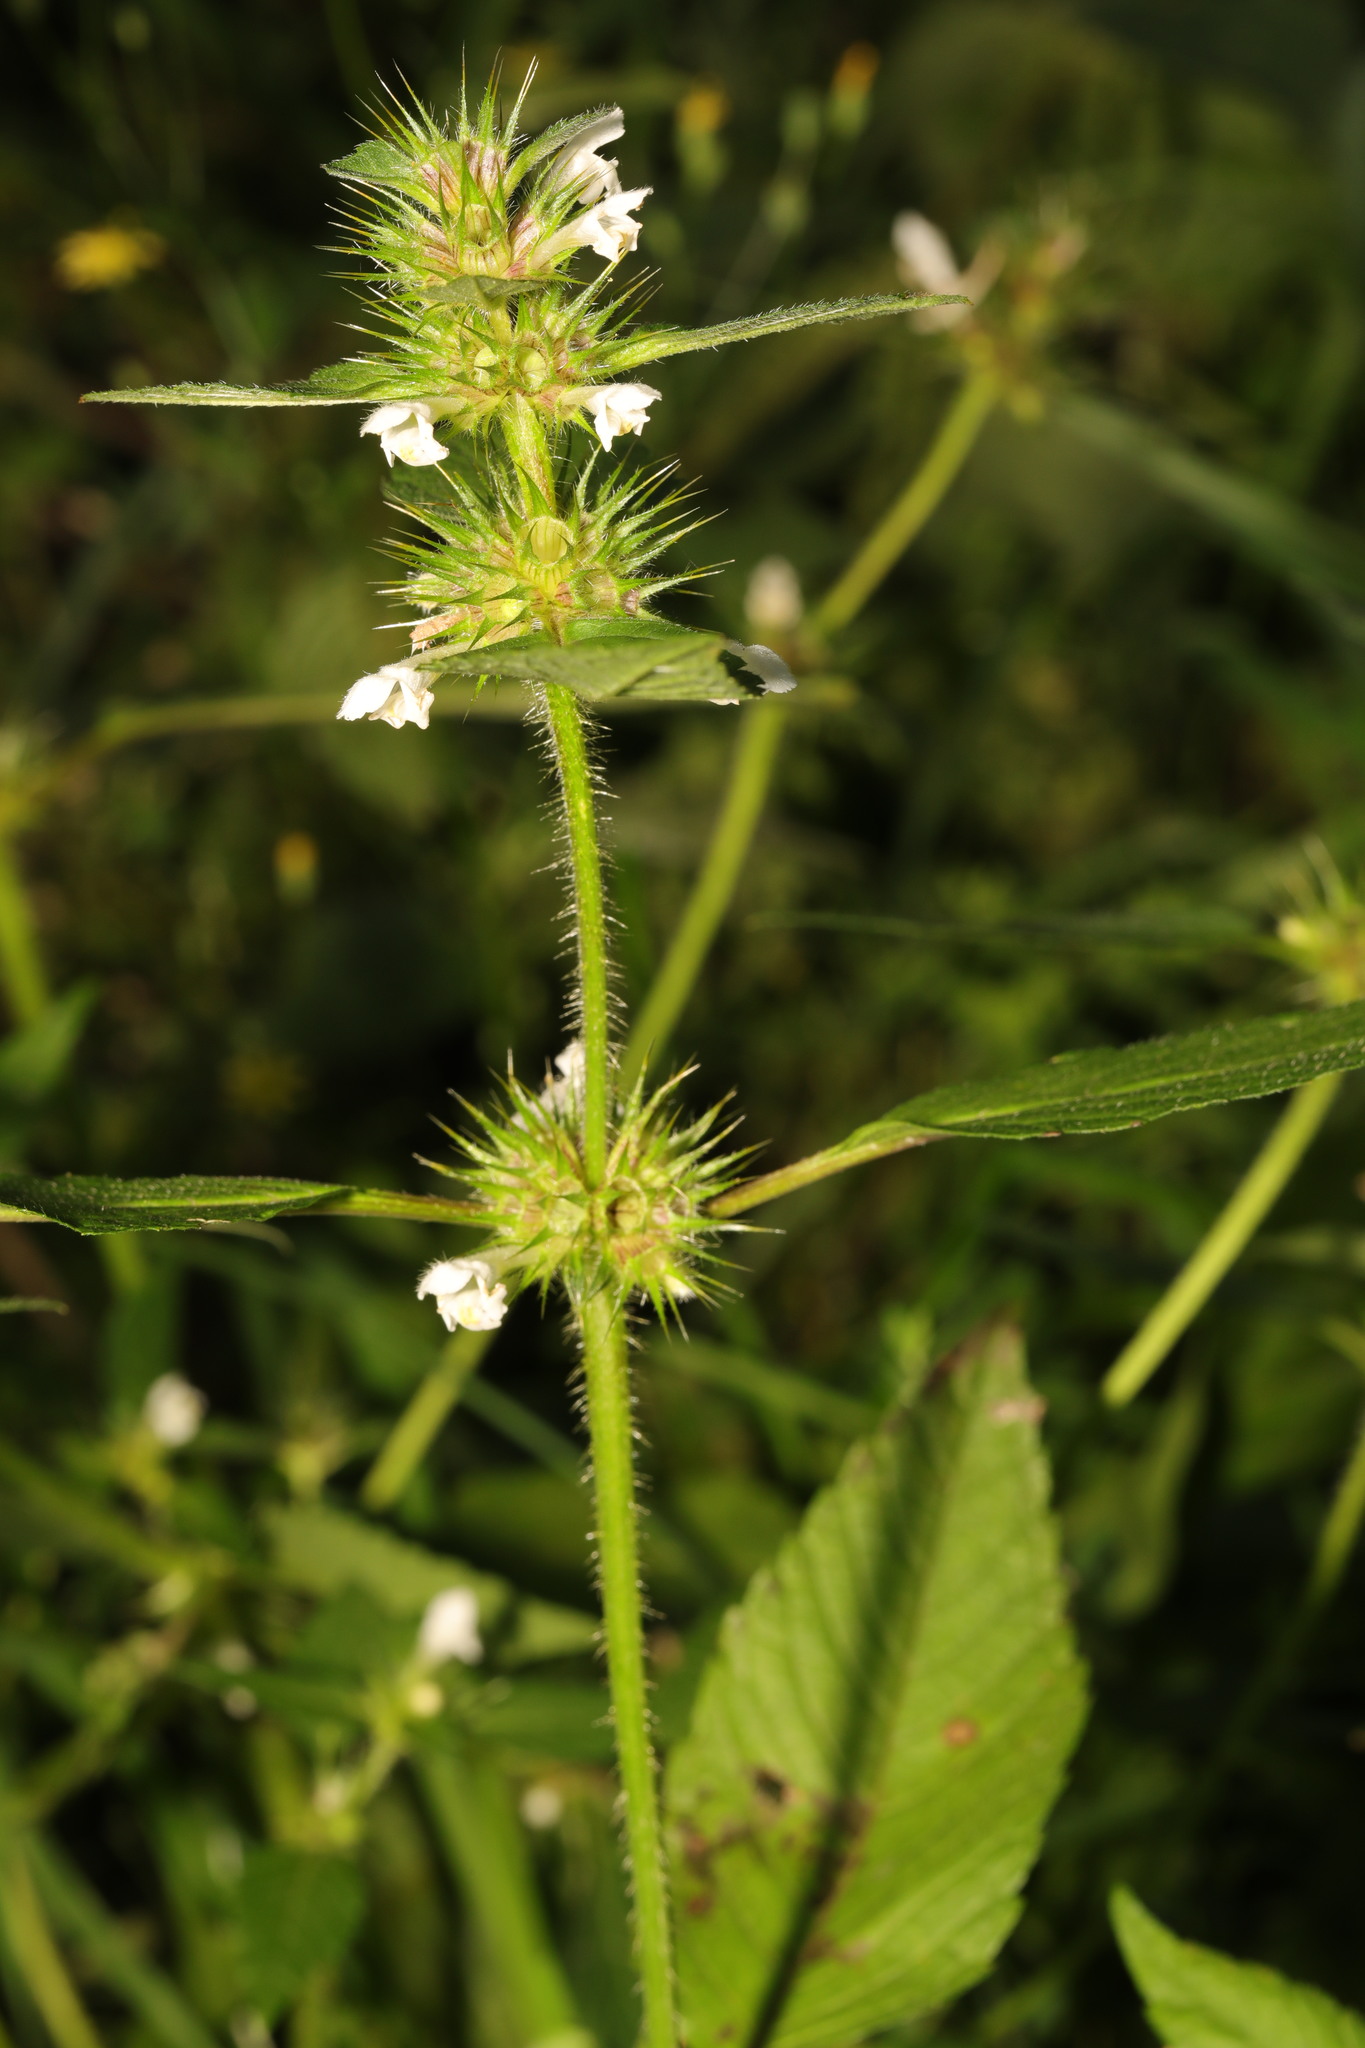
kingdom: Plantae
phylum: Tracheophyta
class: Magnoliopsida
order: Lamiales
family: Lamiaceae
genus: Galeopsis
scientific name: Galeopsis tetrahit
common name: Common hemp-nettle
